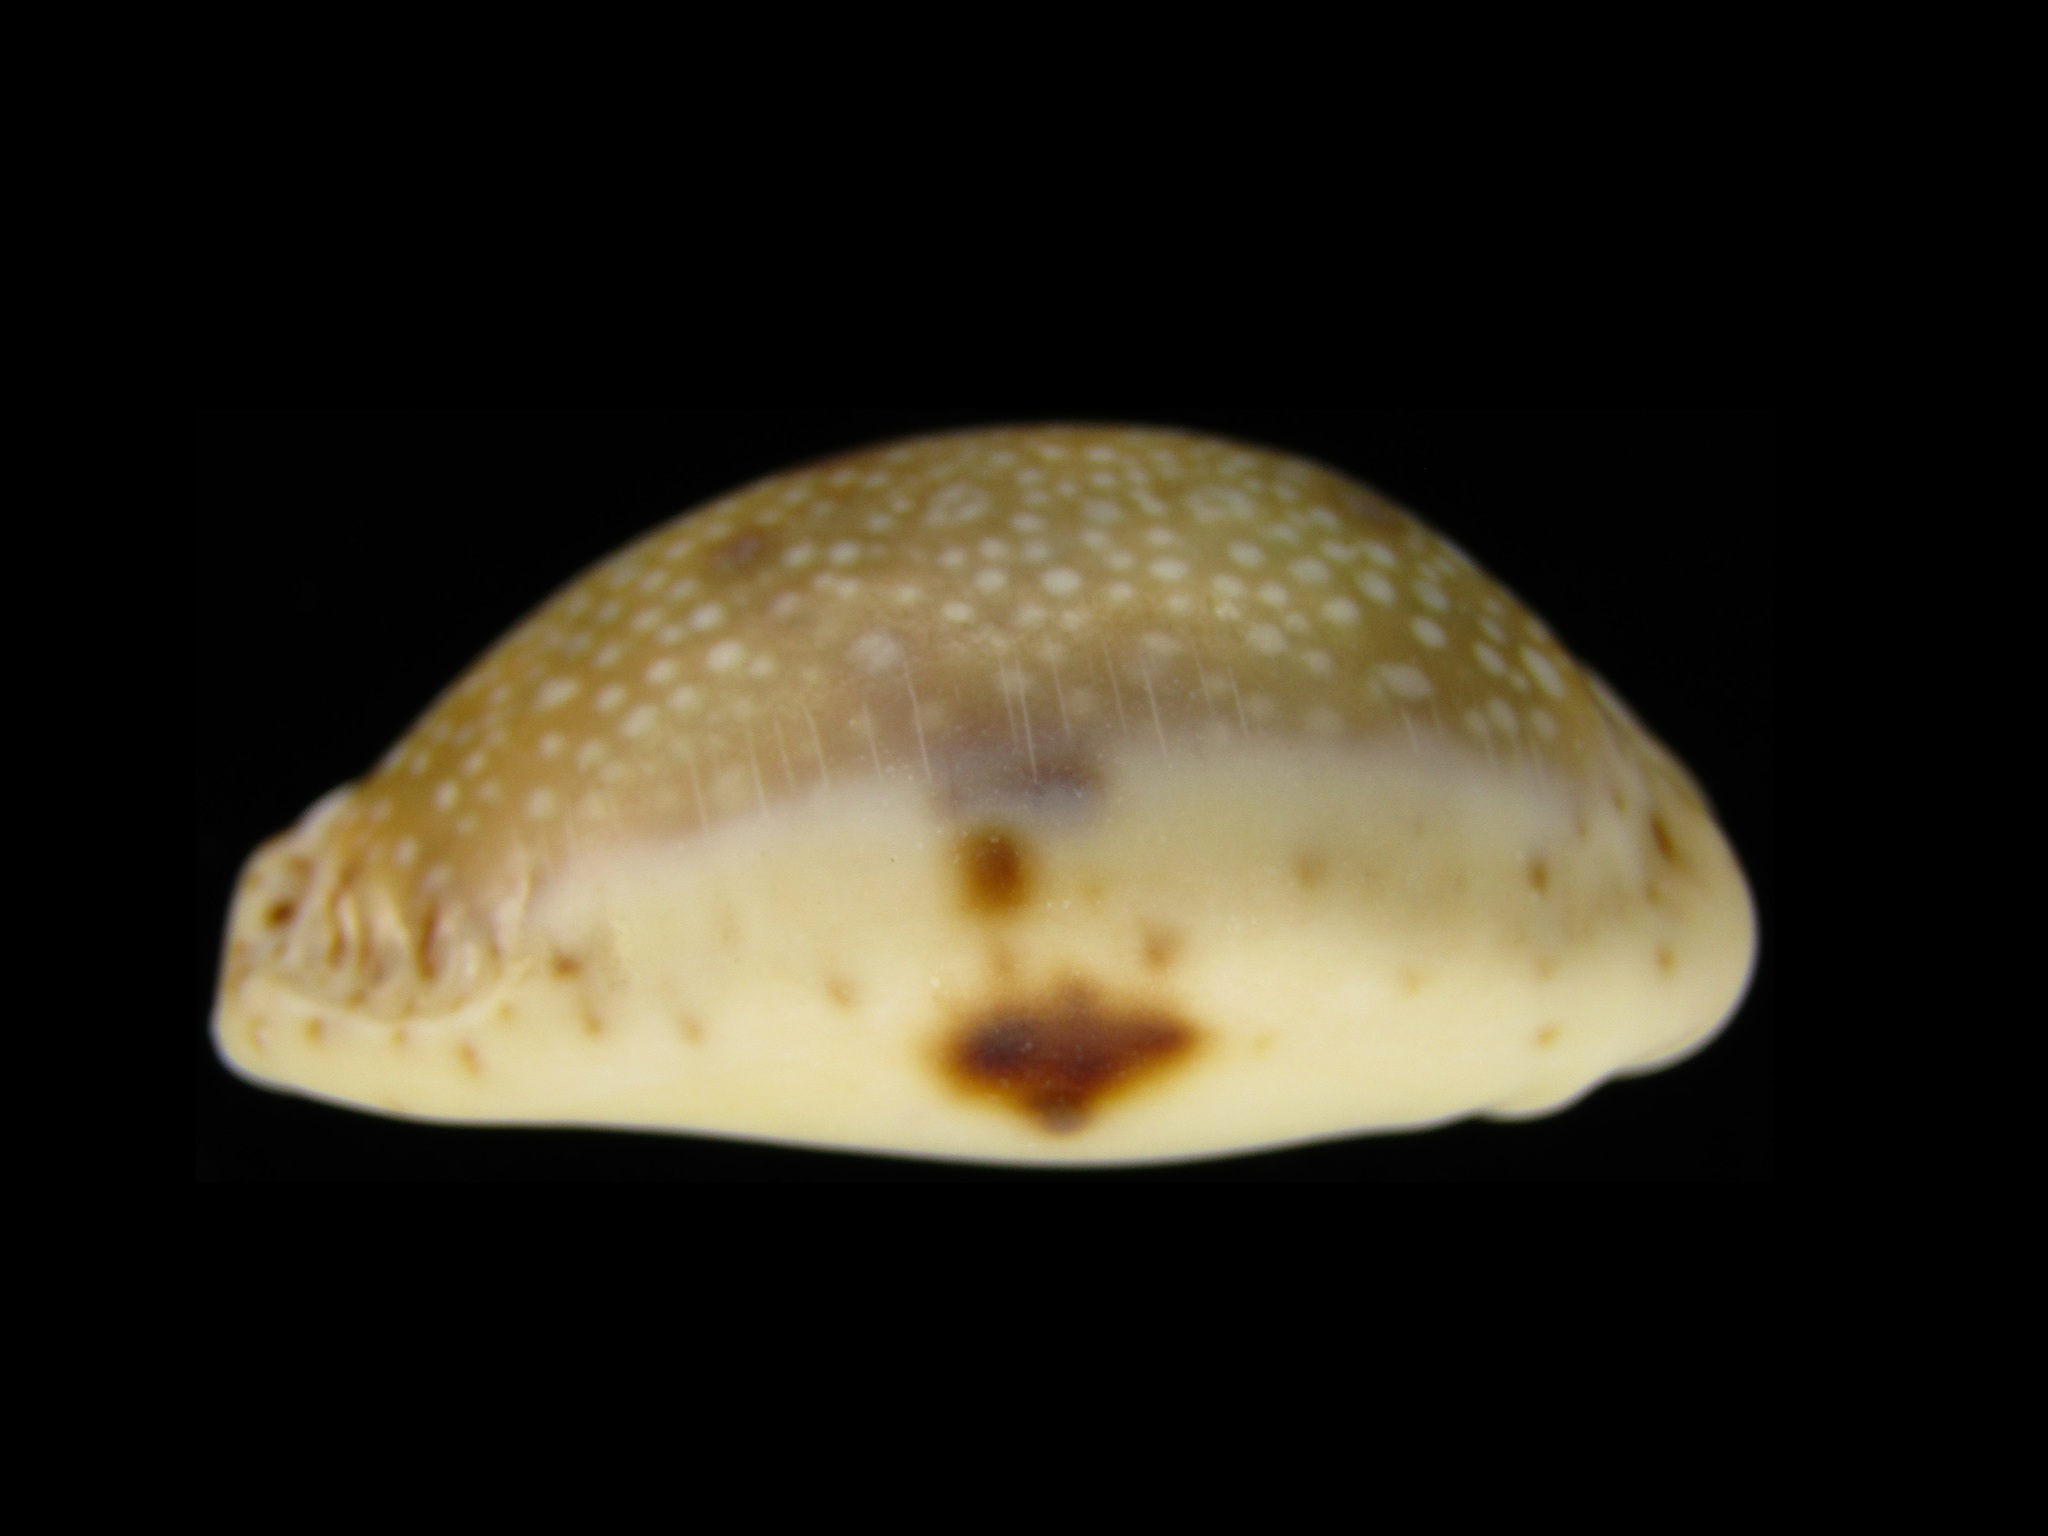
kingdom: Animalia
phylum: Mollusca
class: Gastropoda
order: Littorinimorpha
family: Cypraeidae
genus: Naria
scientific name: Naria erosa
